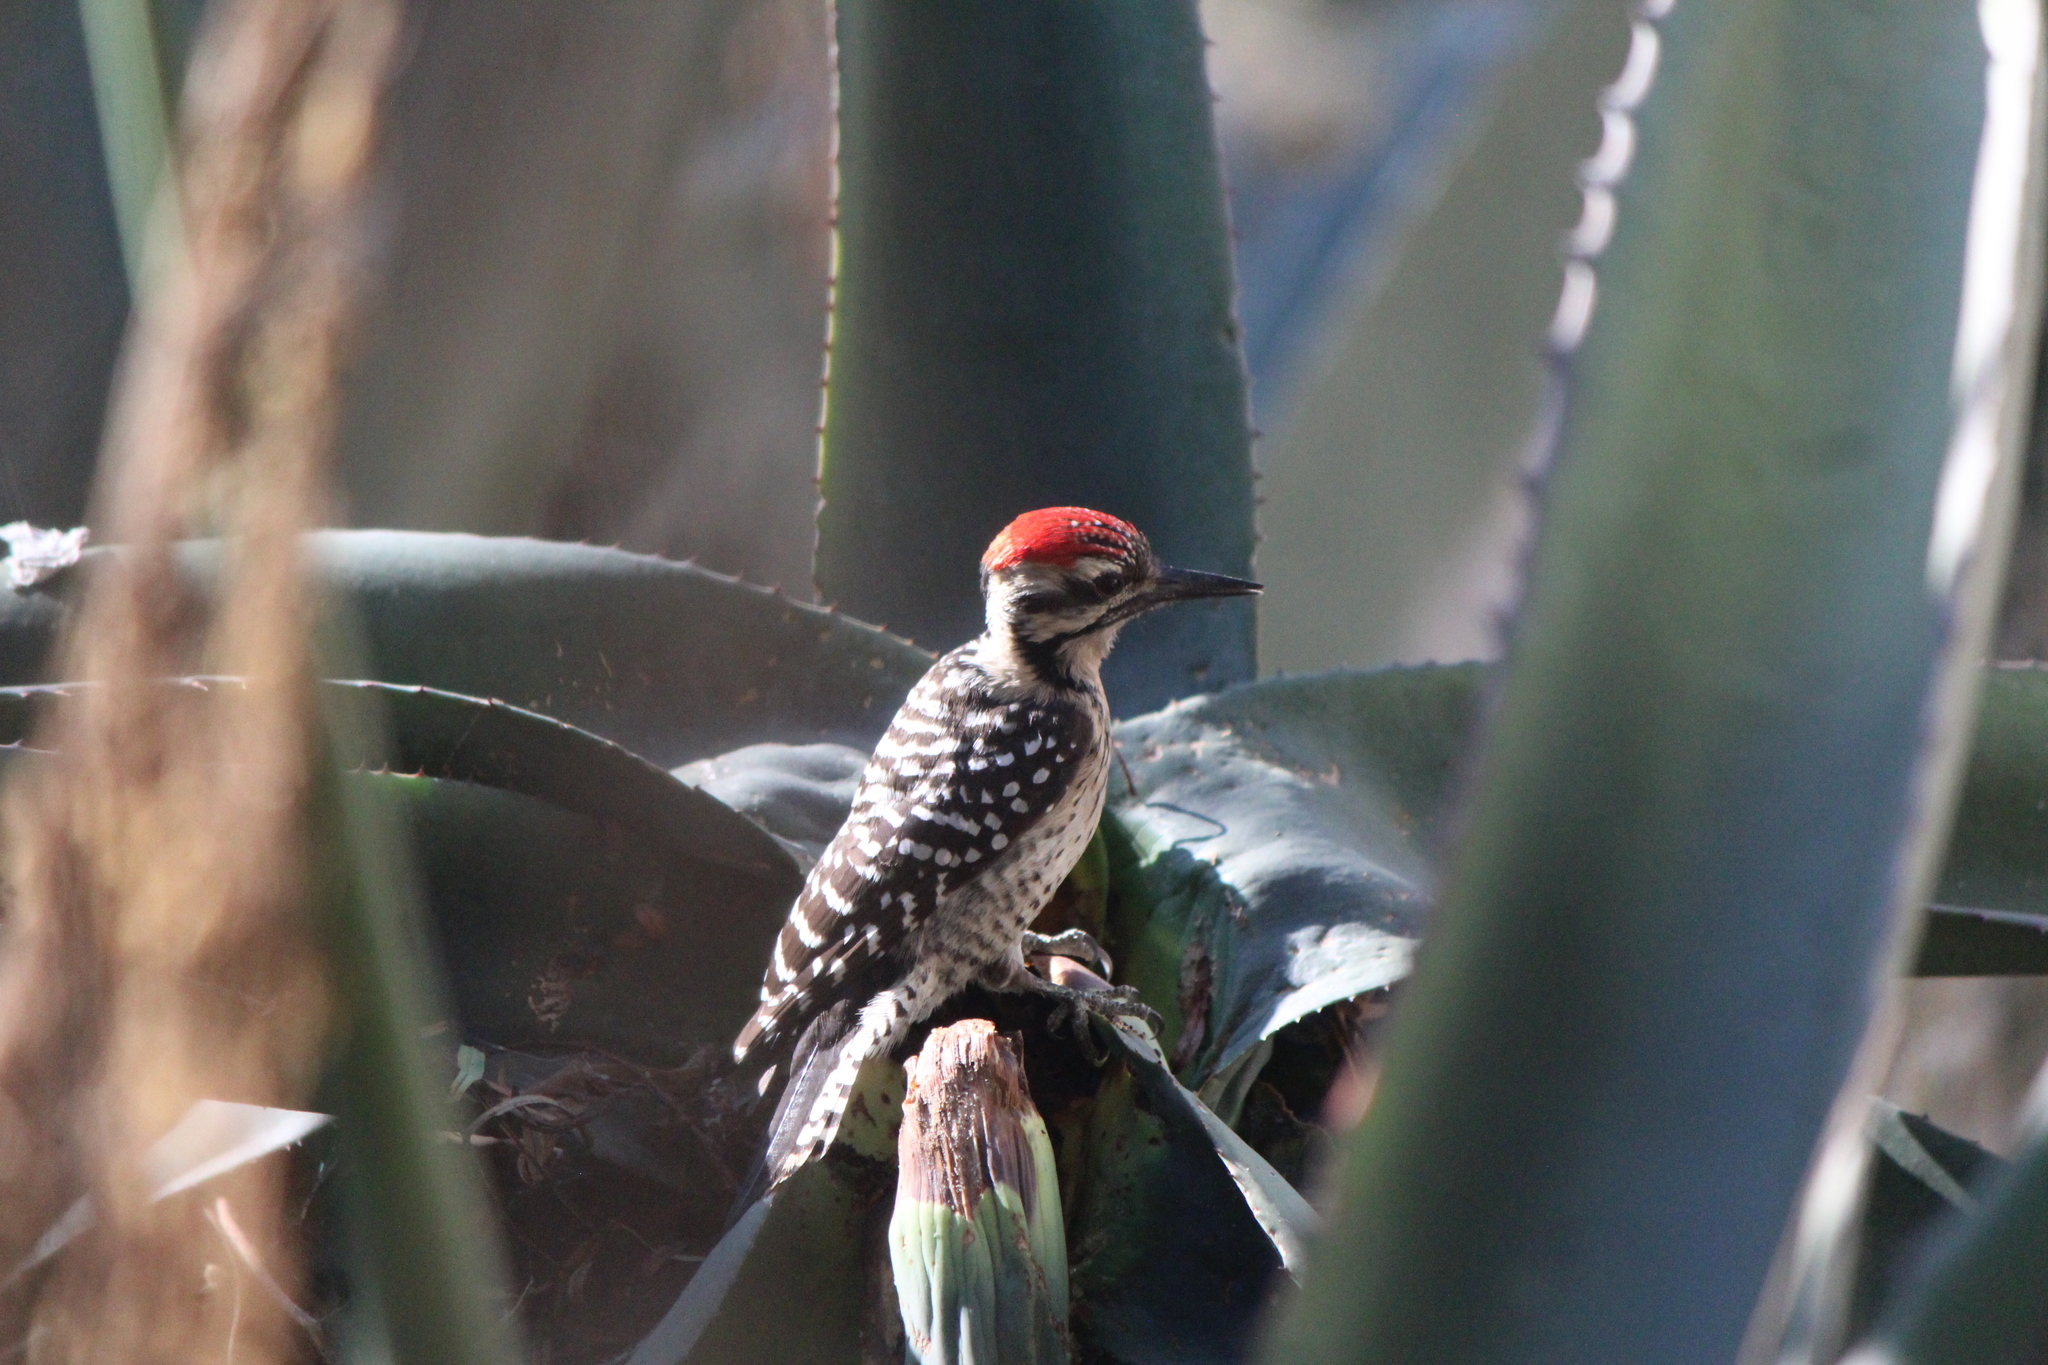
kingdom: Animalia
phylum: Chordata
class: Aves
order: Piciformes
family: Picidae
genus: Dryobates
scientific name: Dryobates scalaris
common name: Ladder-backed woodpecker
